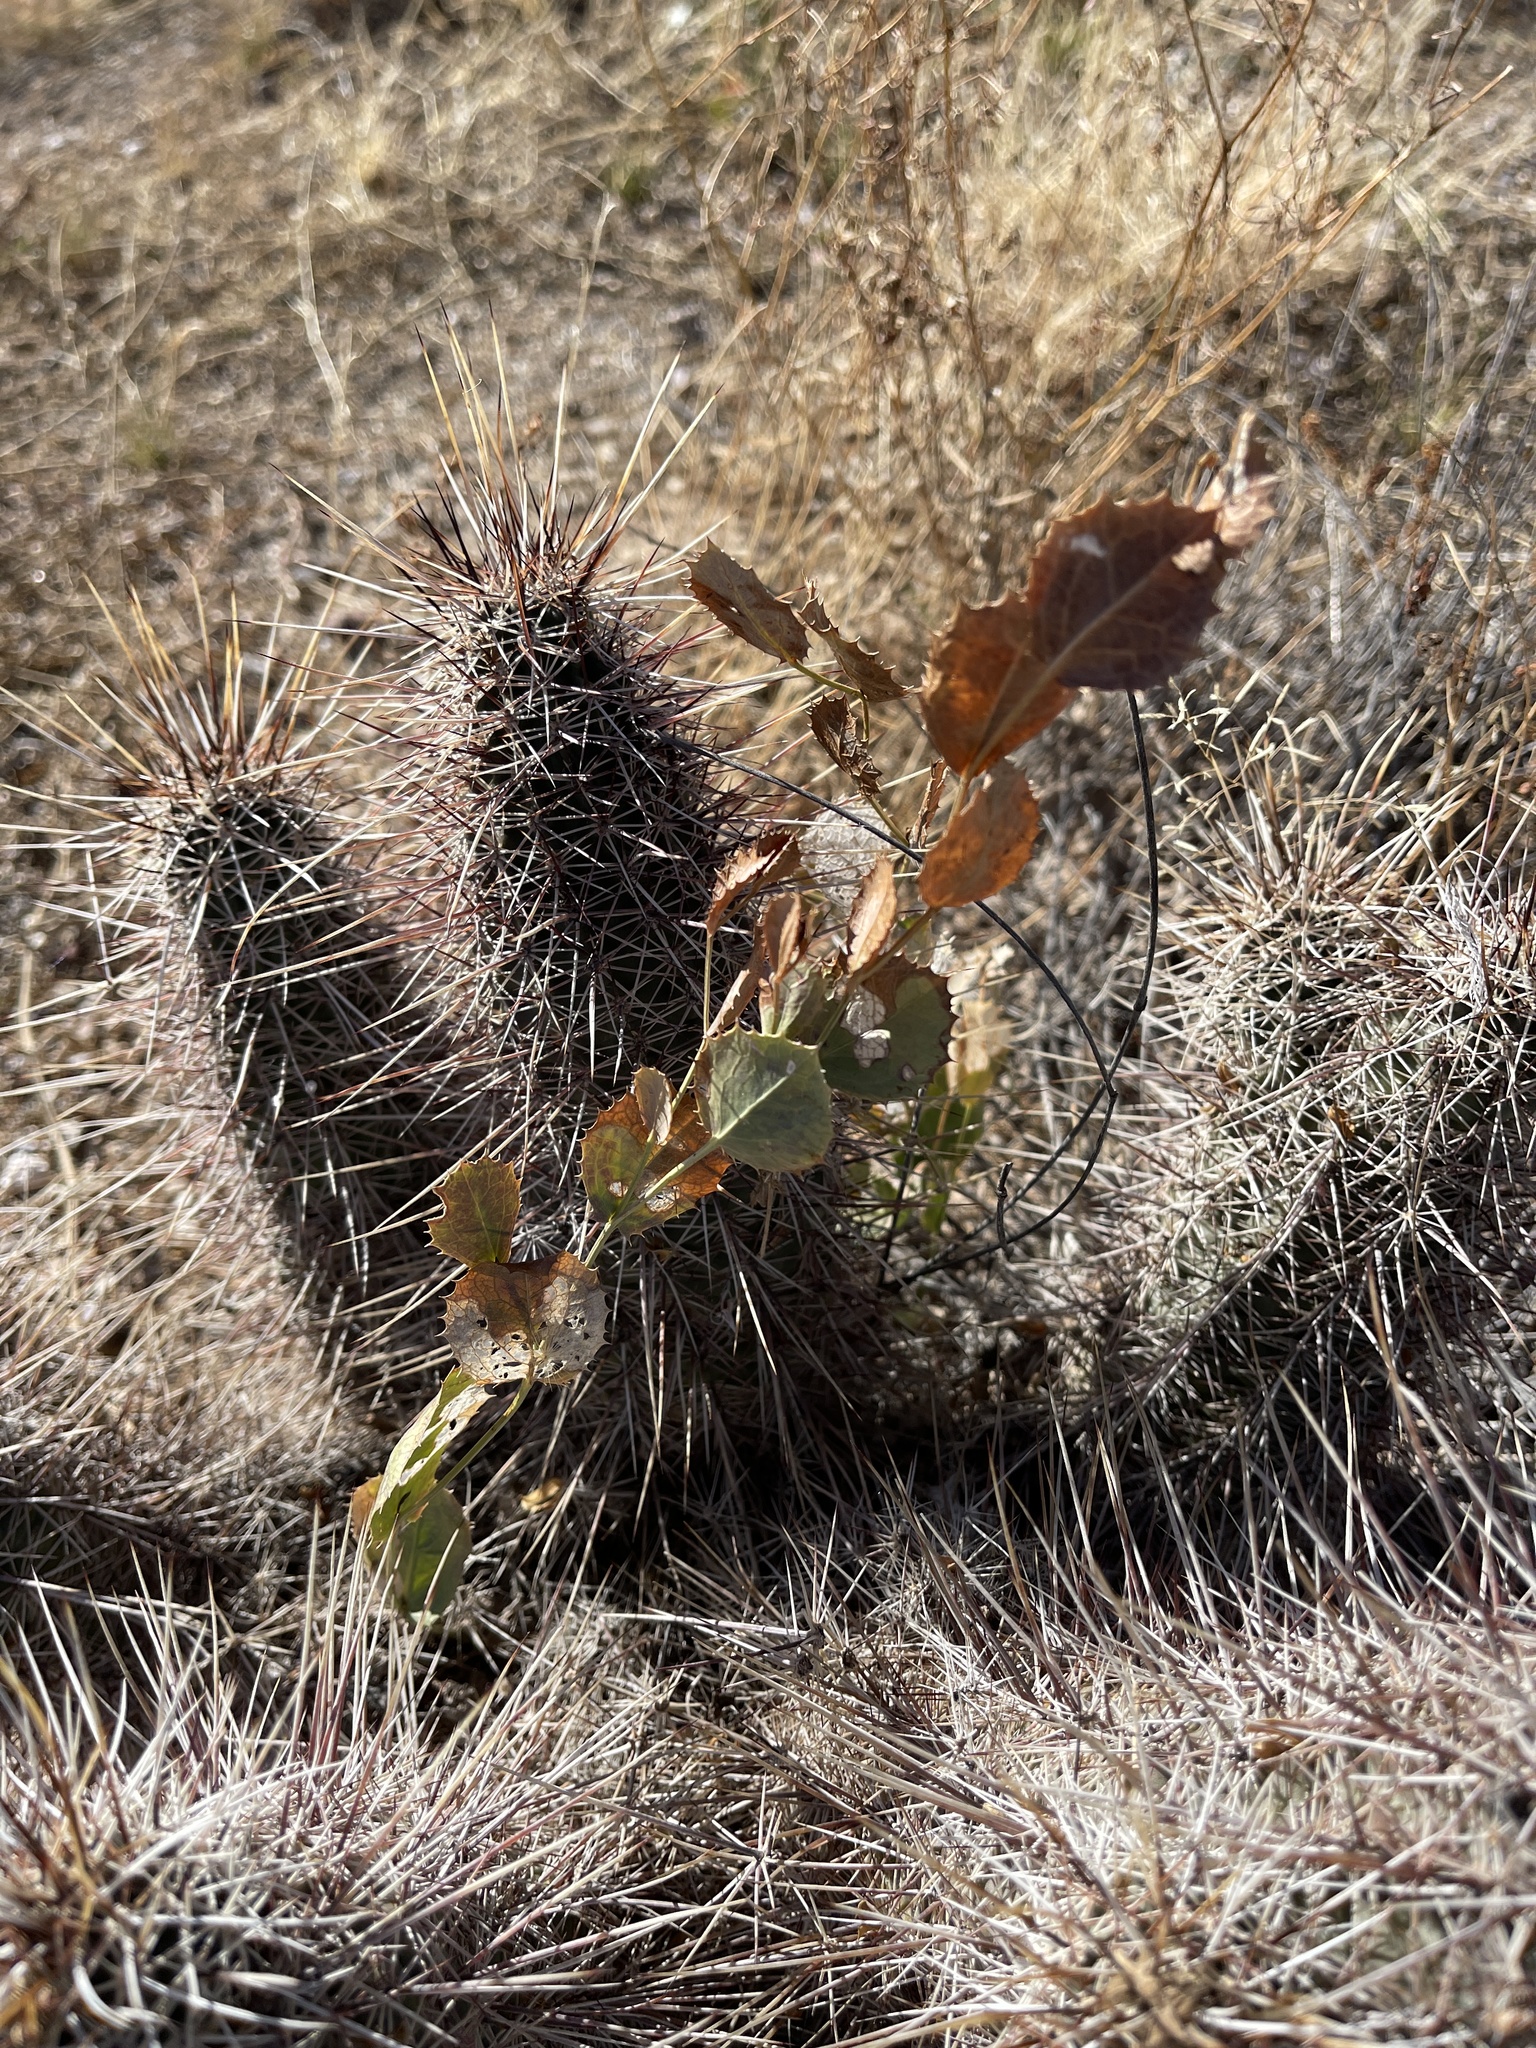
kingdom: Plantae
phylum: Tracheophyta
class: Magnoliopsida
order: Asterales
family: Asteraceae
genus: Acourtia
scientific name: Acourtia nana
